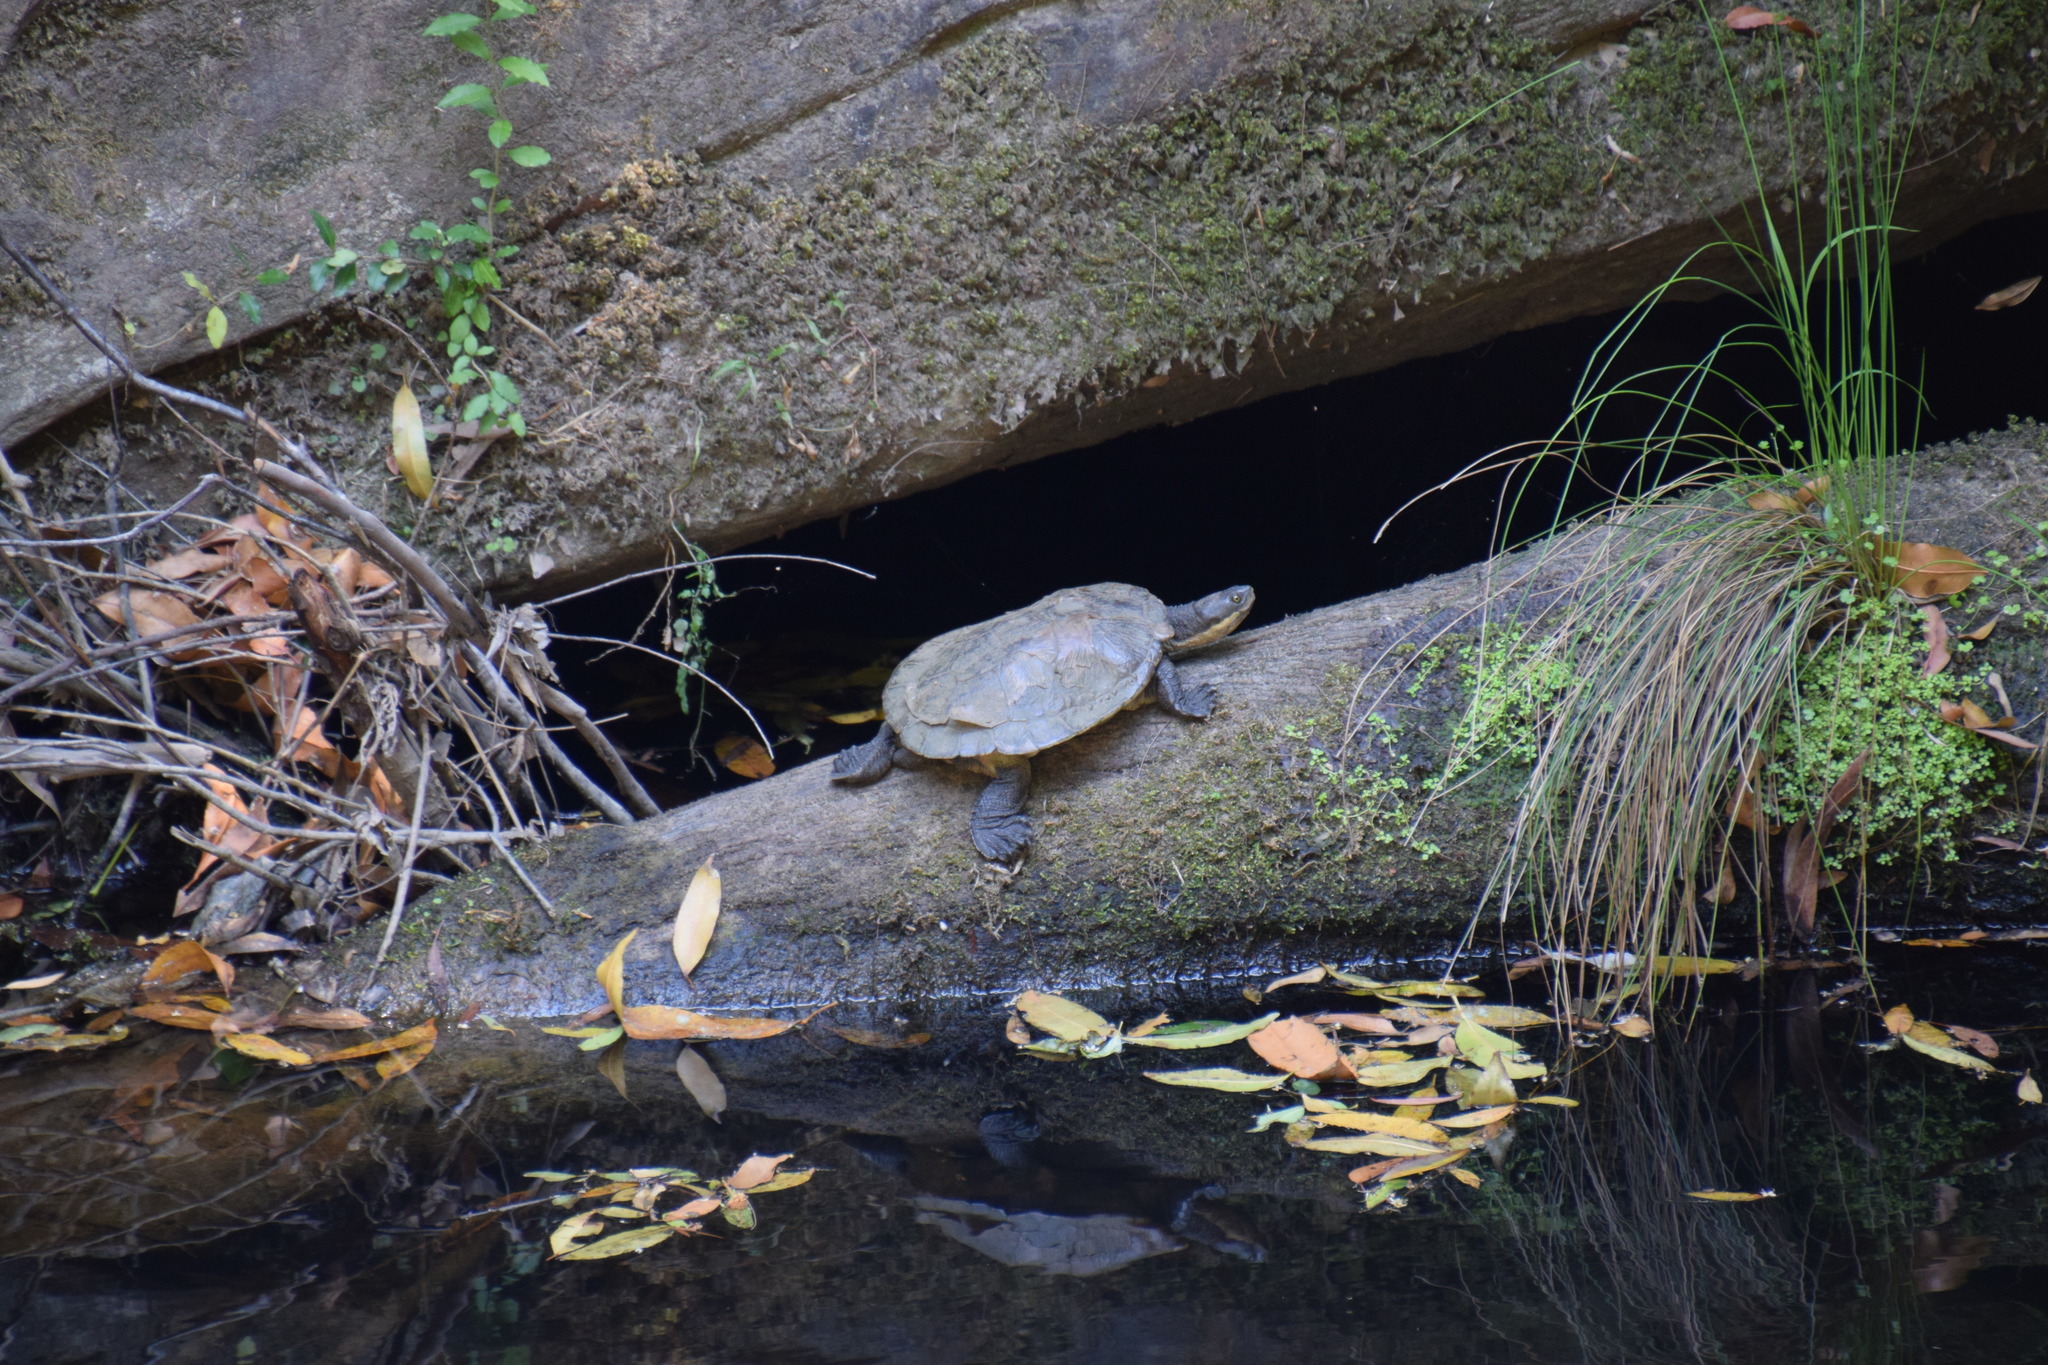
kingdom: Animalia
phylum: Chordata
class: Testudines
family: Chelidae
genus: Emydura
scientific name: Emydura macquarii
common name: Murray river turtle
